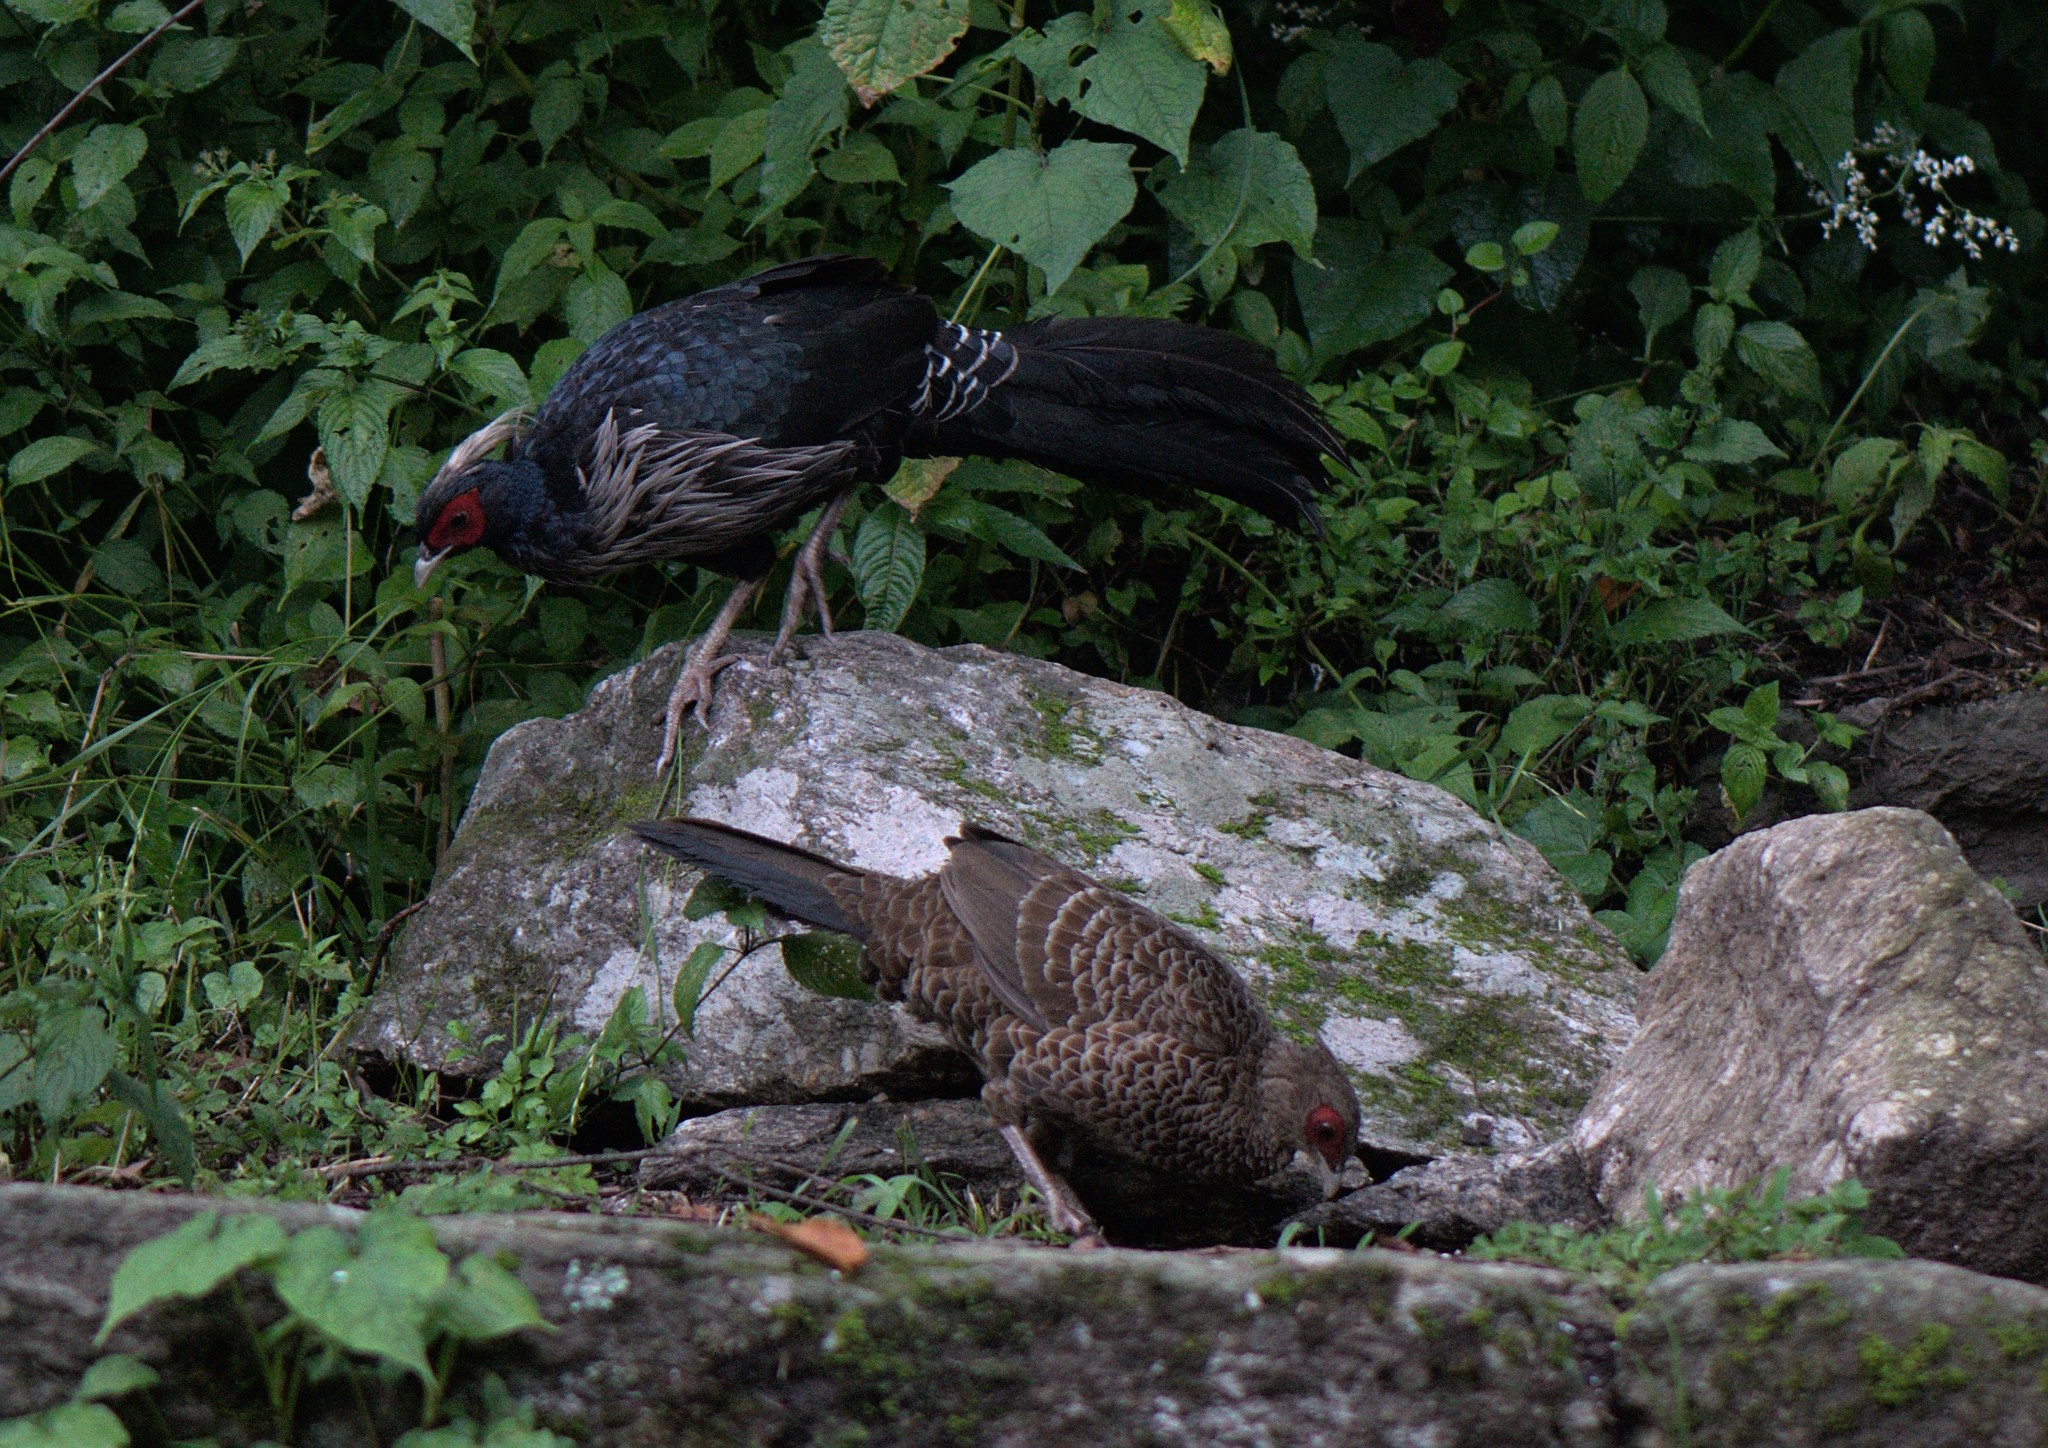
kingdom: Animalia
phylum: Chordata
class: Aves
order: Galliformes
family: Phasianidae
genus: Lophura
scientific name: Lophura leucomelanos
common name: Kalij pheasant
